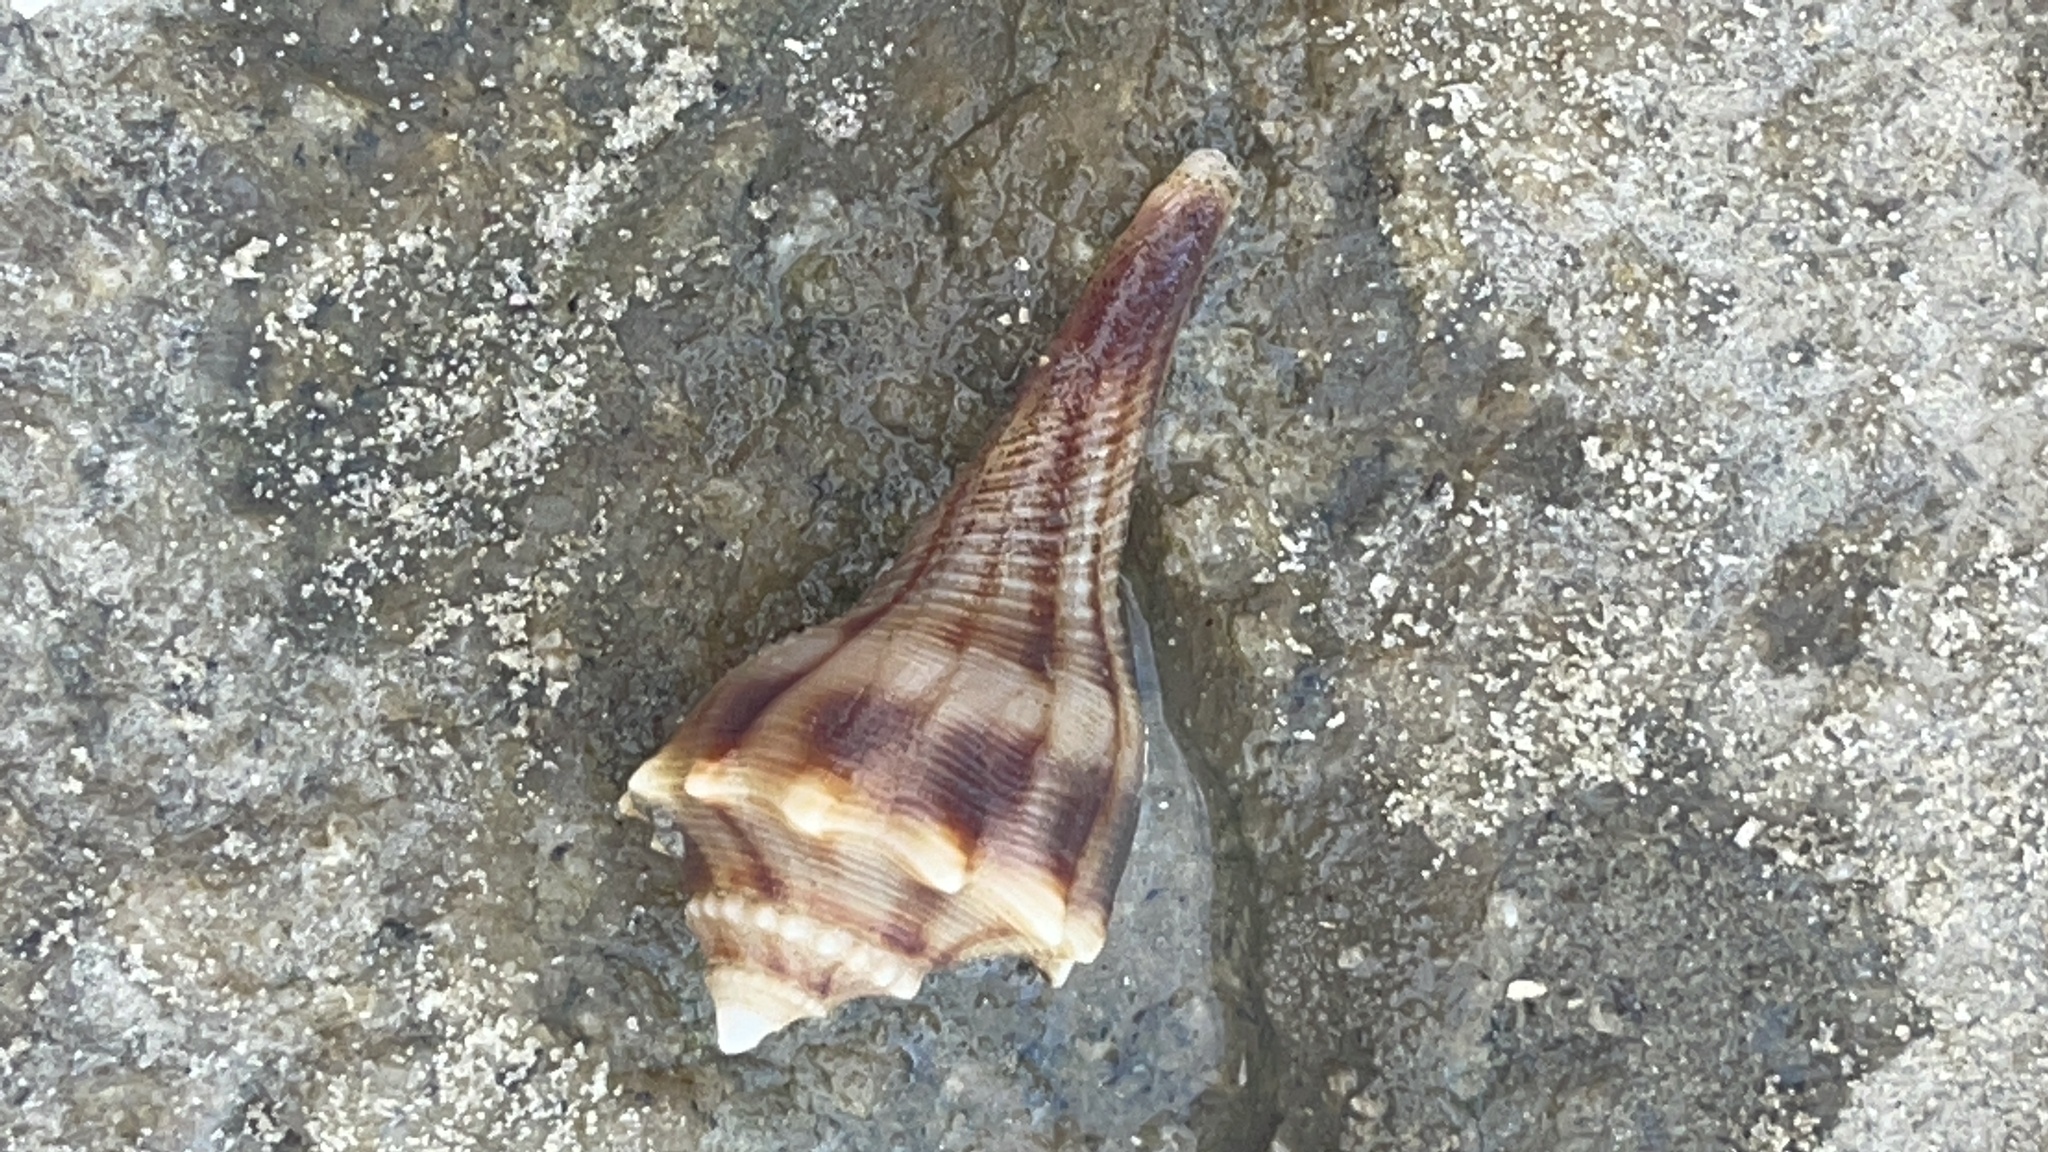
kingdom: Animalia
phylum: Mollusca
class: Gastropoda
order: Neogastropoda
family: Busyconidae
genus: Busycon
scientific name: Busycon carica
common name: Knobbed whelk
